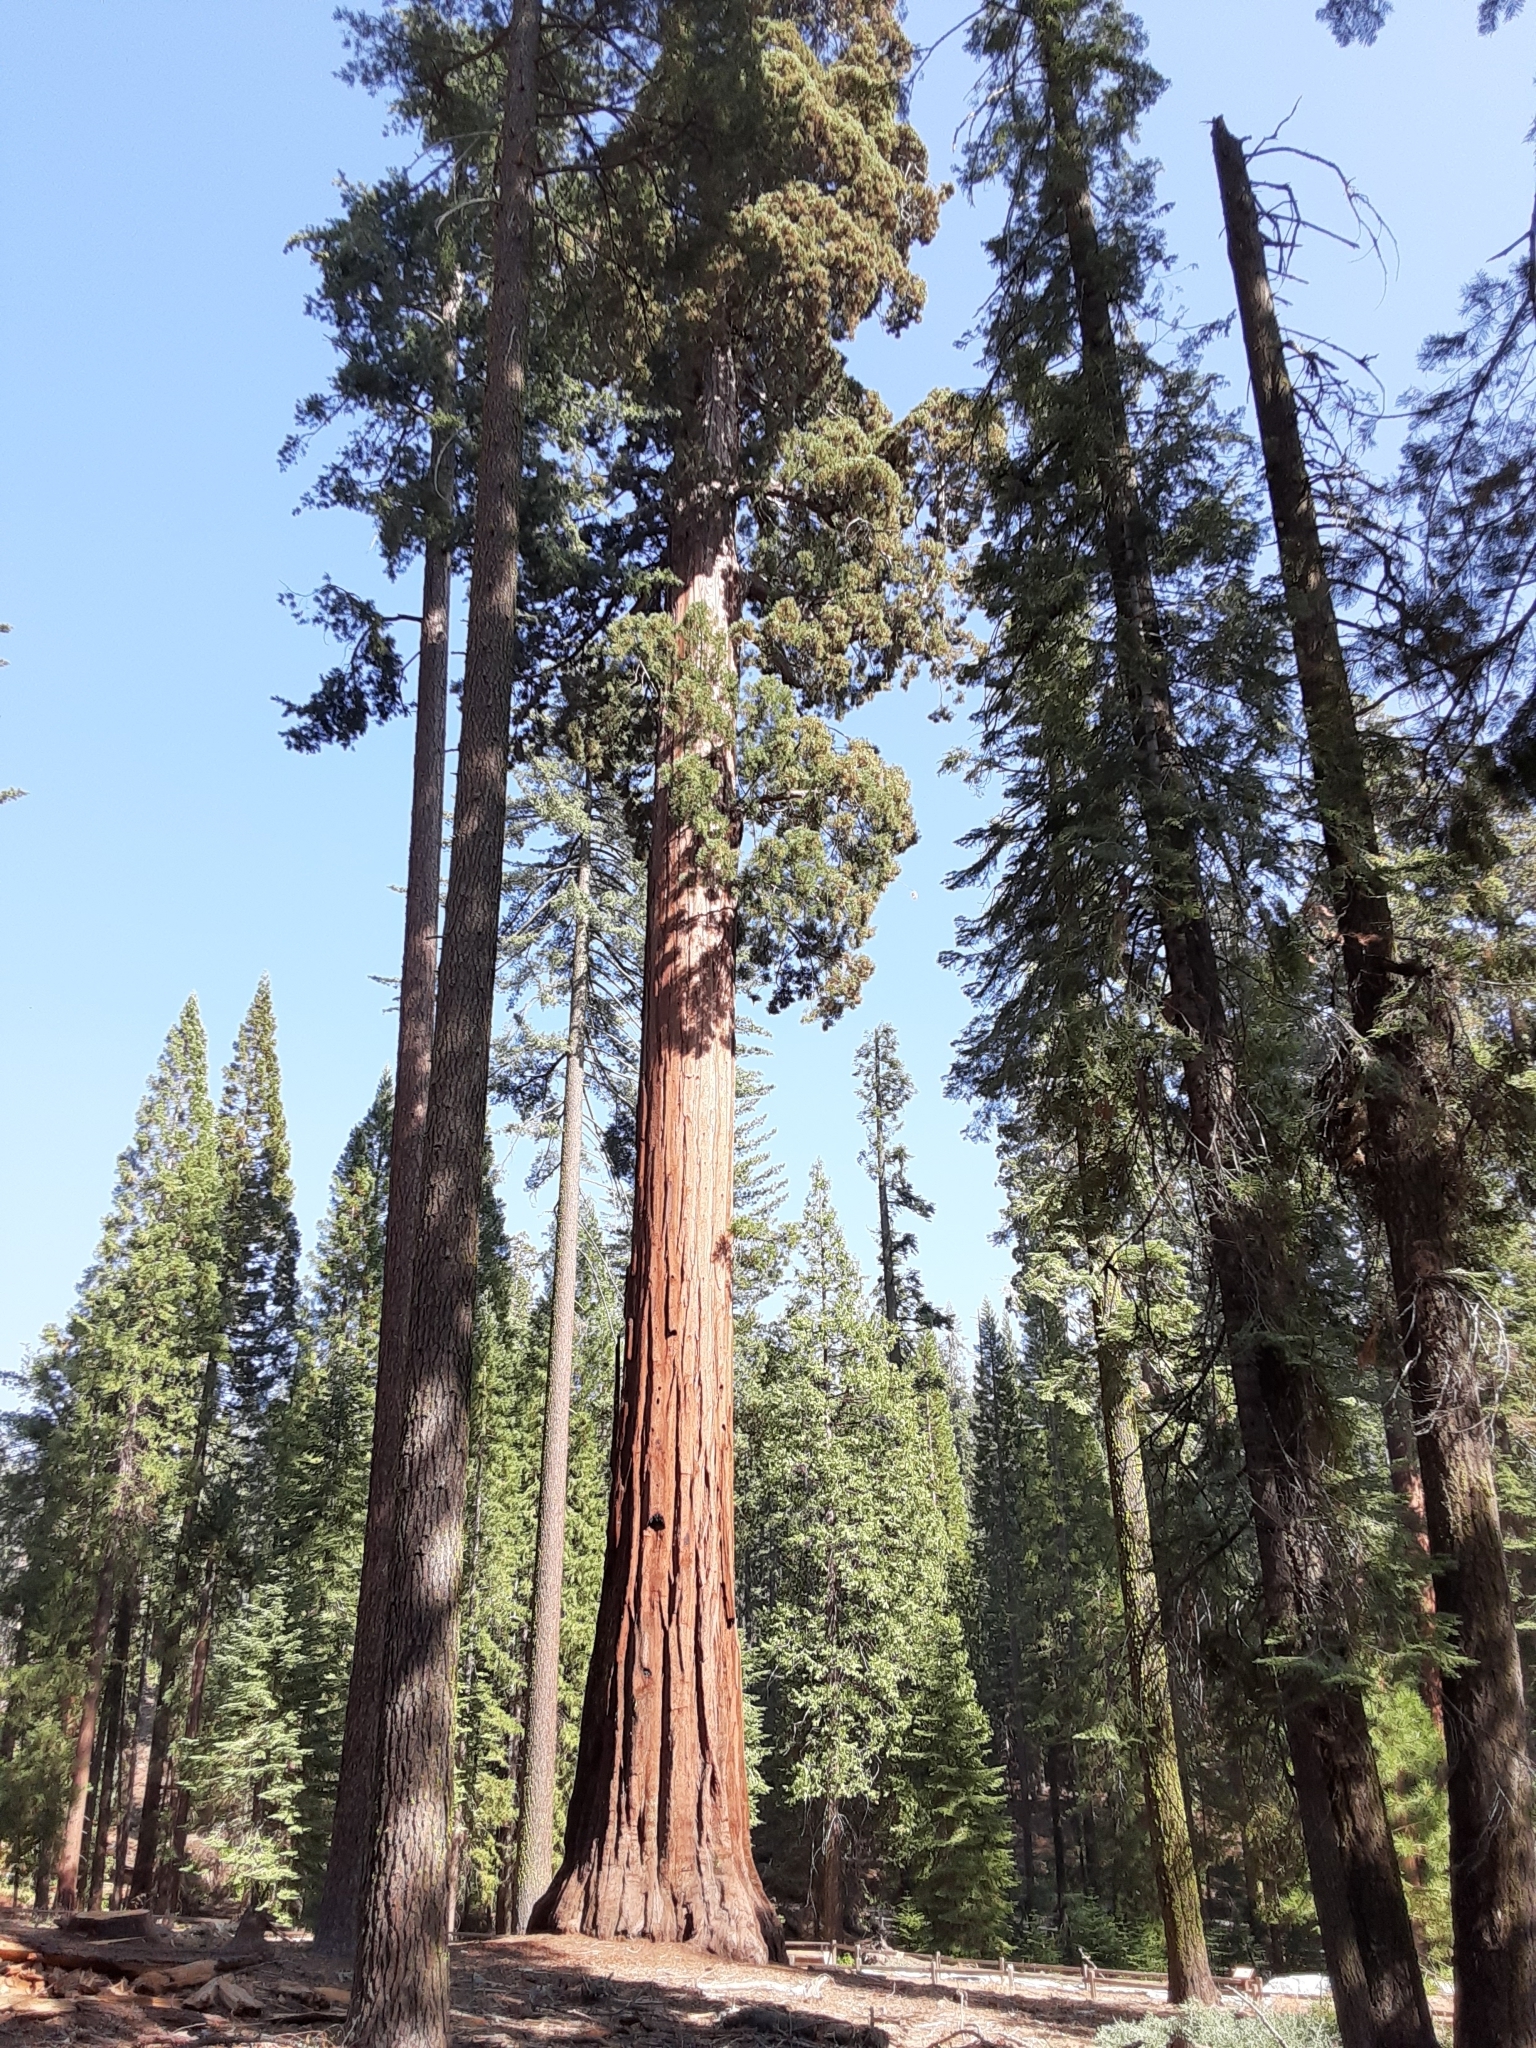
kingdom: Plantae
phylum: Tracheophyta
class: Pinopsida
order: Pinales
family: Cupressaceae
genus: Sequoiadendron
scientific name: Sequoiadendron giganteum
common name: Wellingtonia
